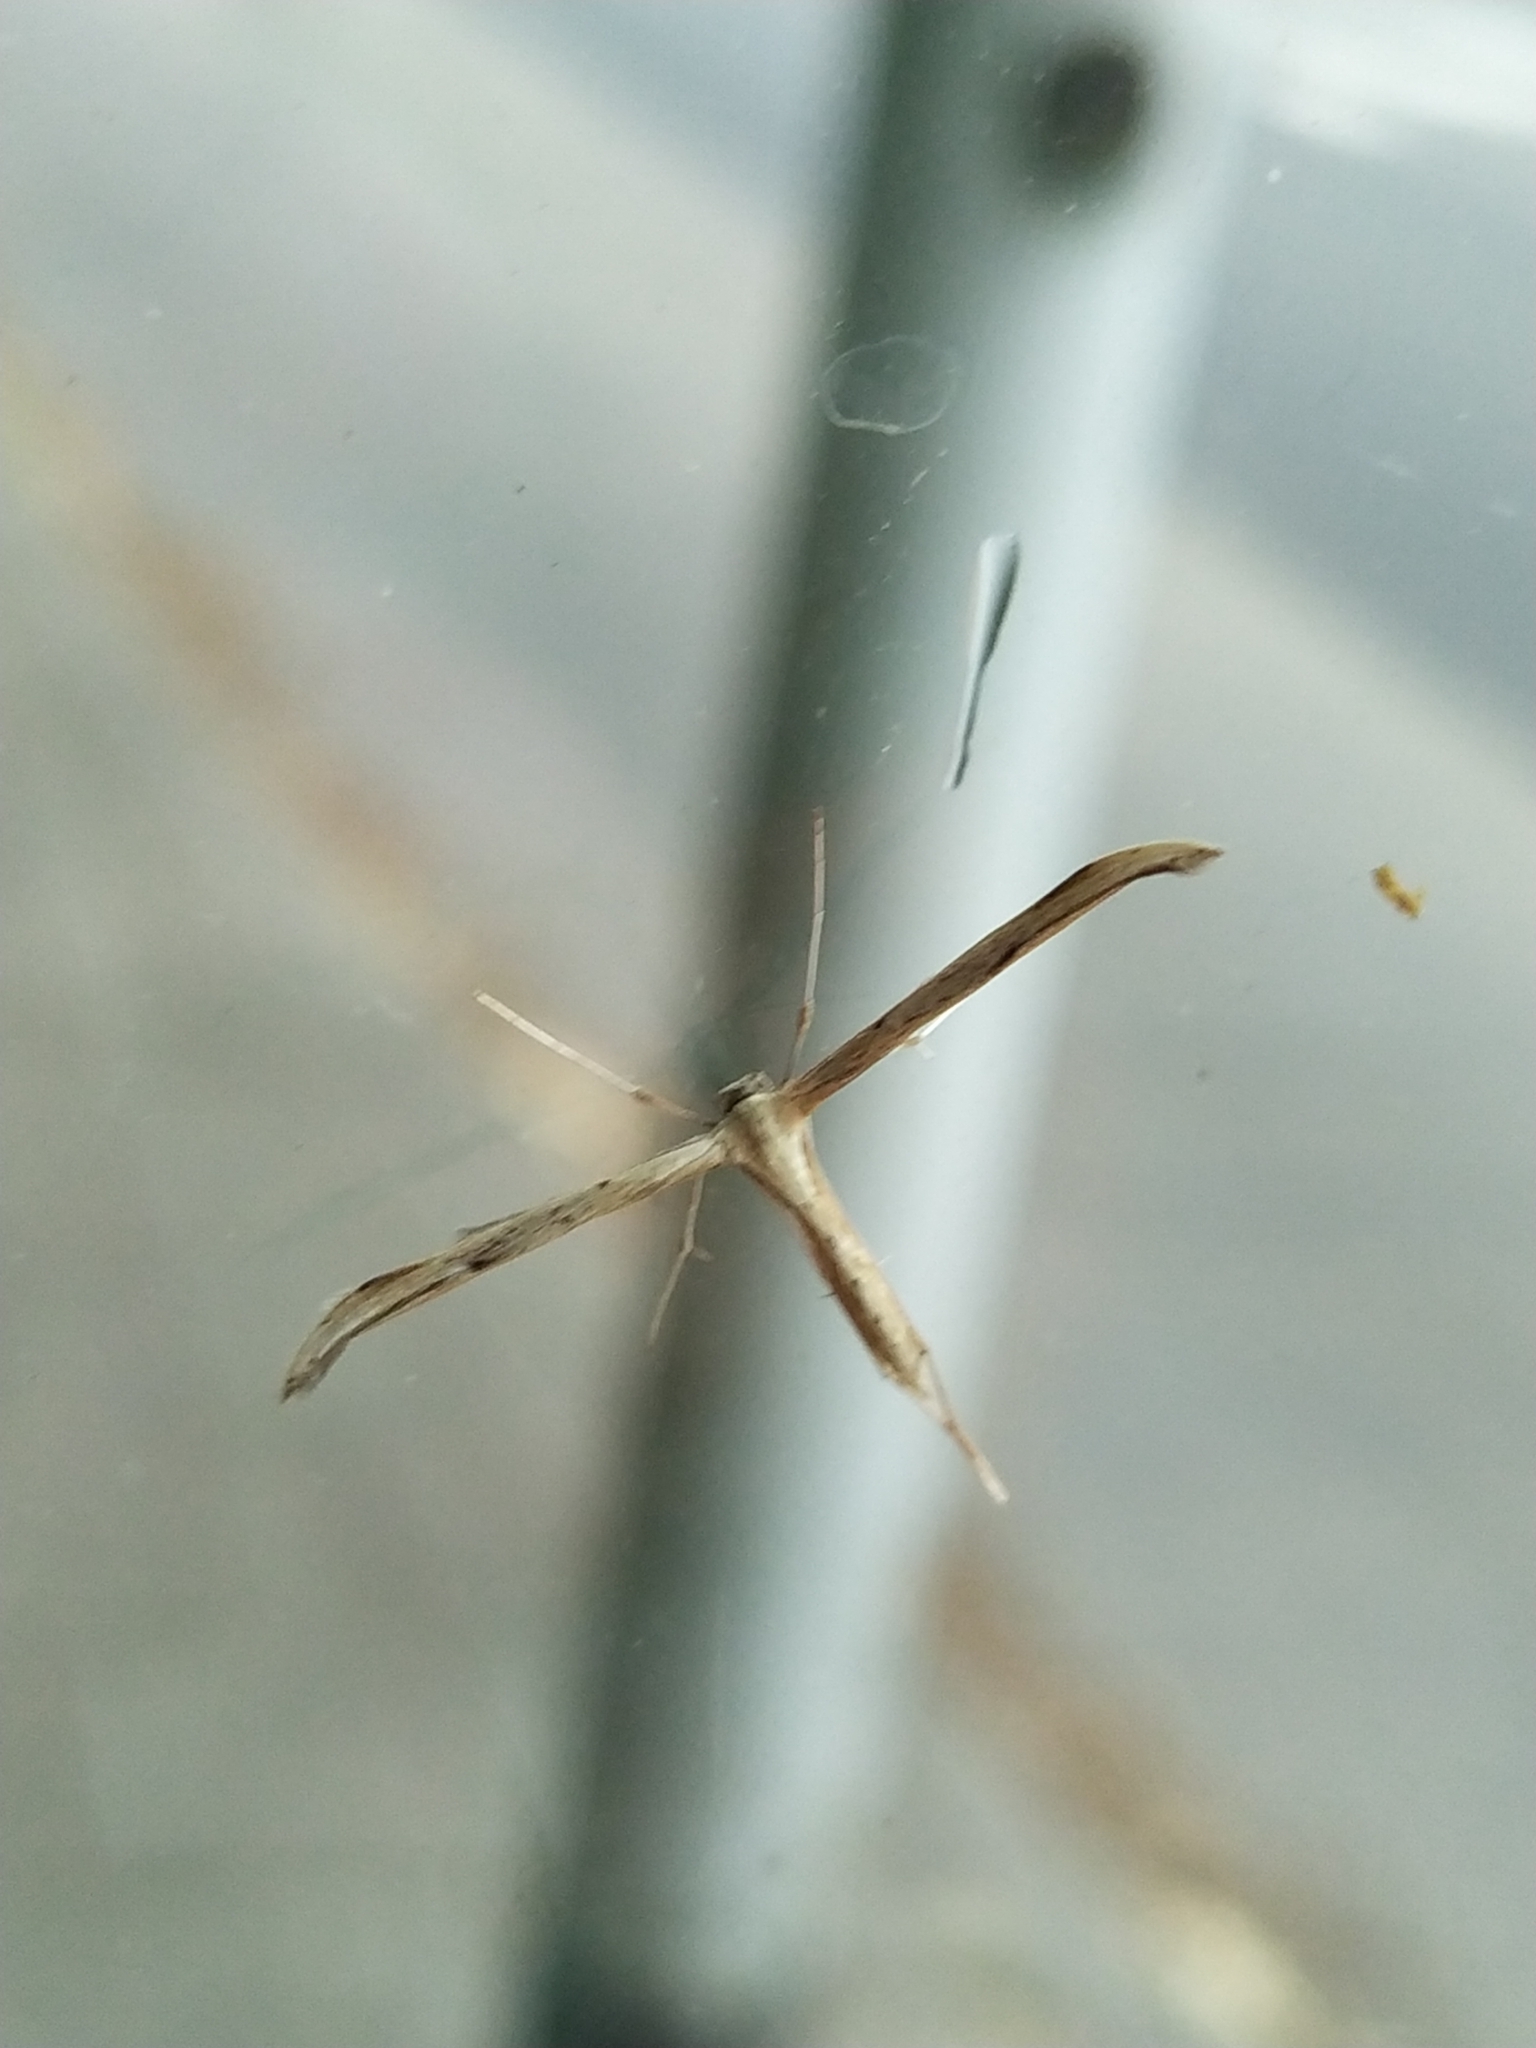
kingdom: Animalia
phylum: Arthropoda
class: Insecta
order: Lepidoptera
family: Pterophoridae
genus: Emmelina
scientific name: Emmelina monodactyla
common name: Common plume
